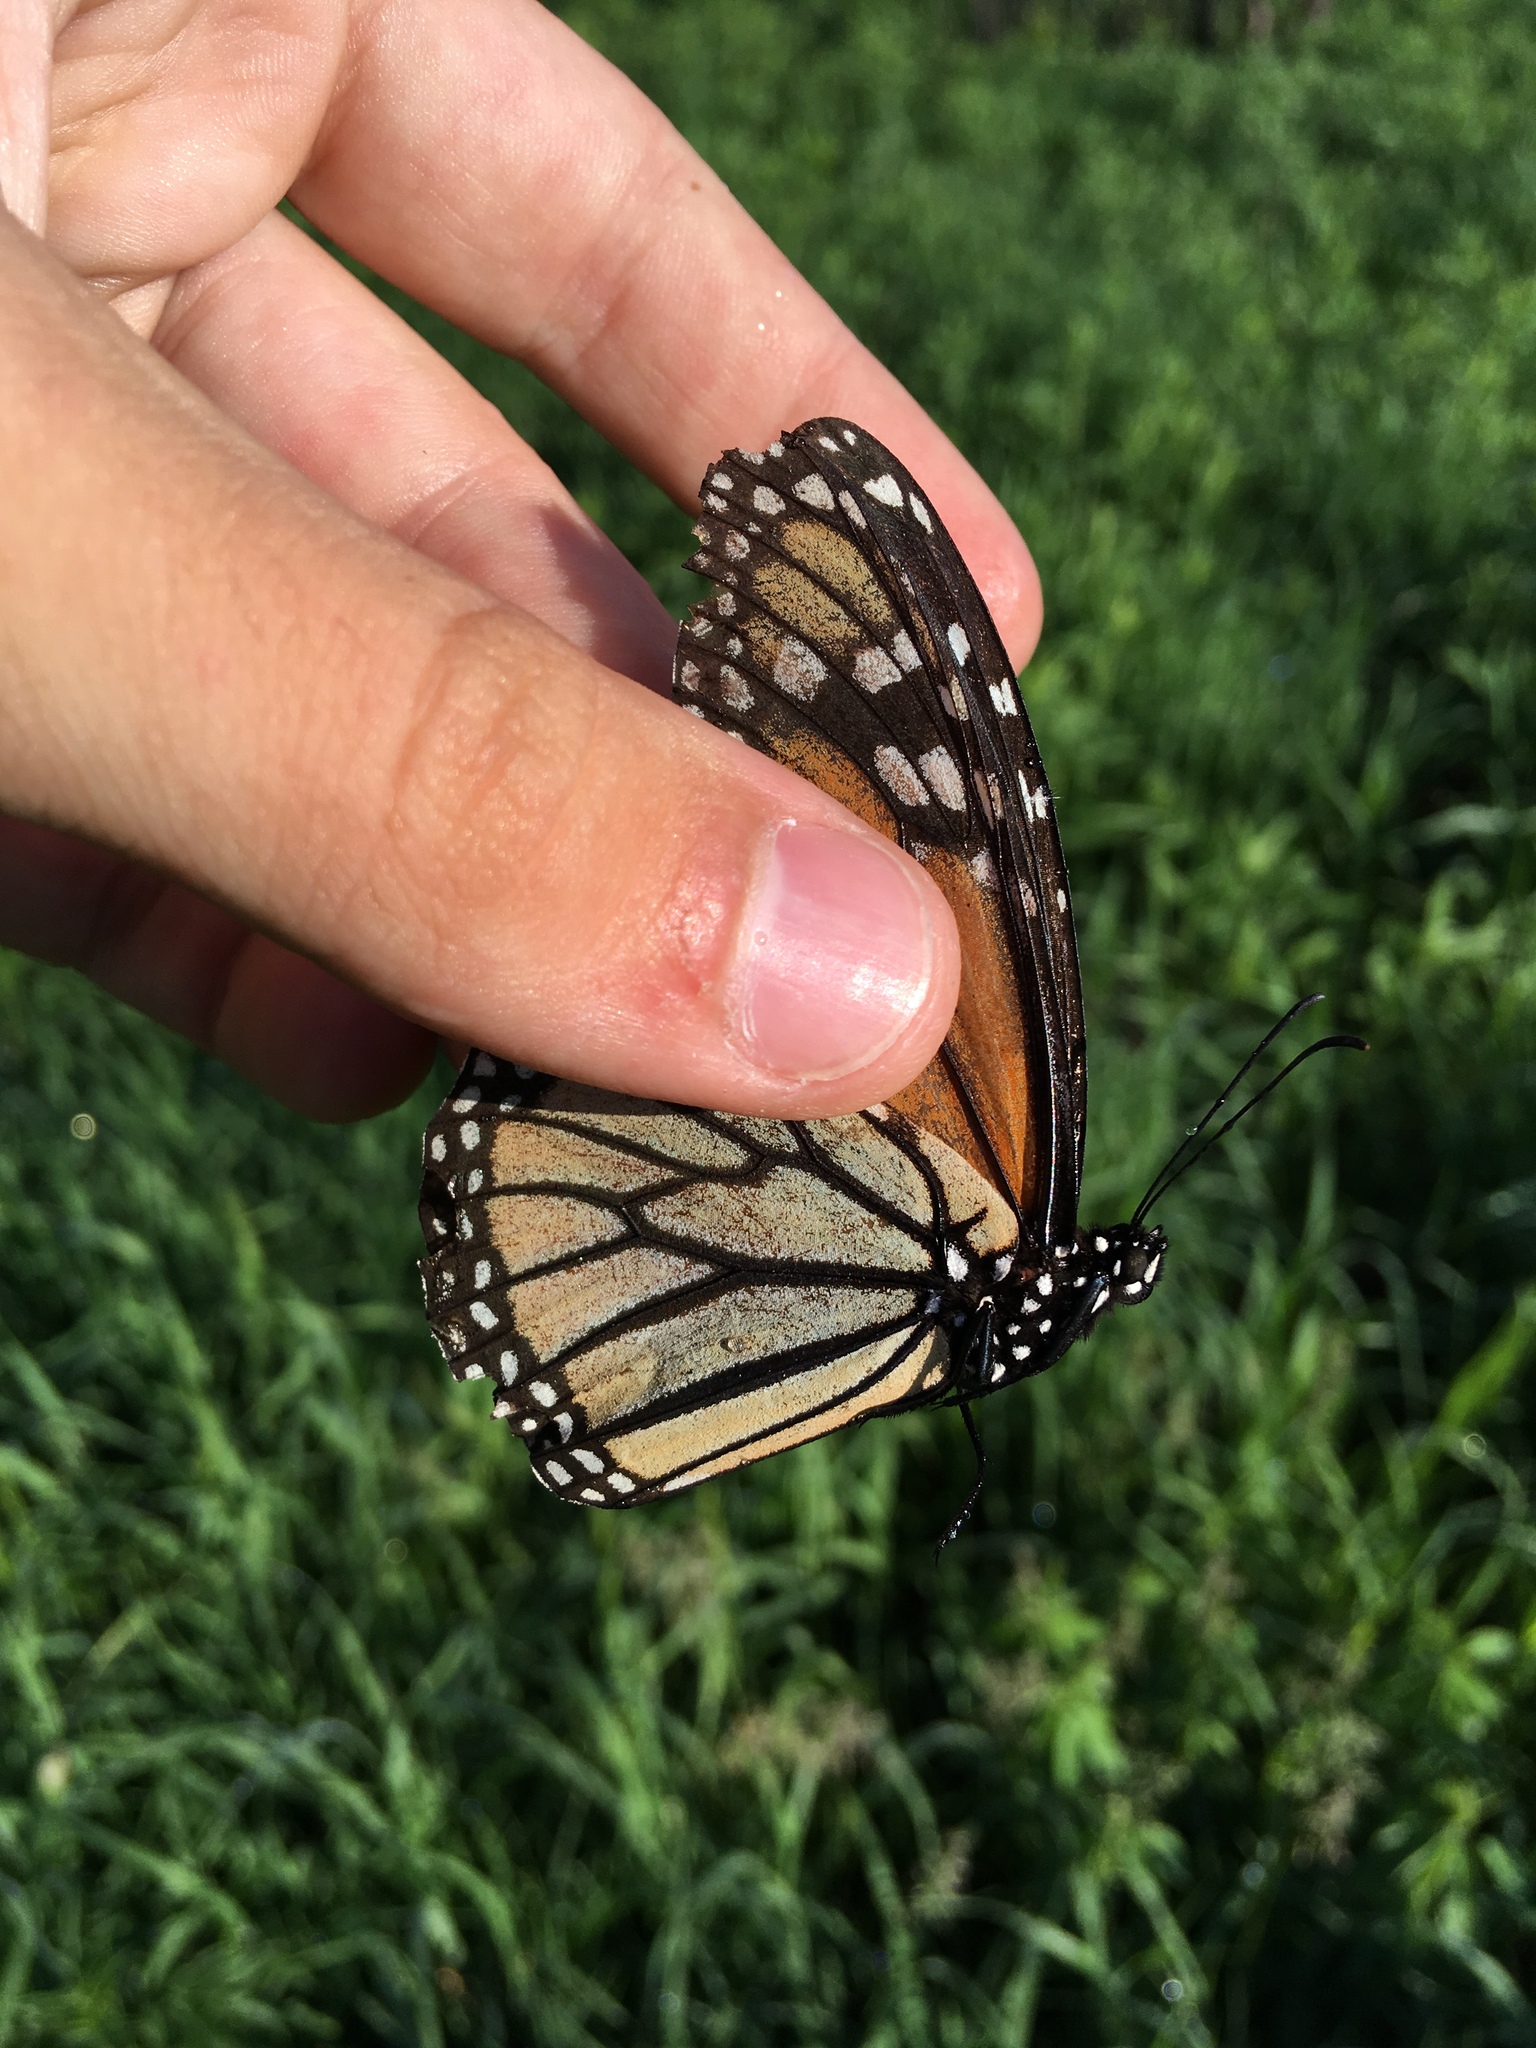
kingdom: Animalia
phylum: Arthropoda
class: Insecta
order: Lepidoptera
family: Nymphalidae
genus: Danaus
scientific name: Danaus plexippus
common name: Monarch
